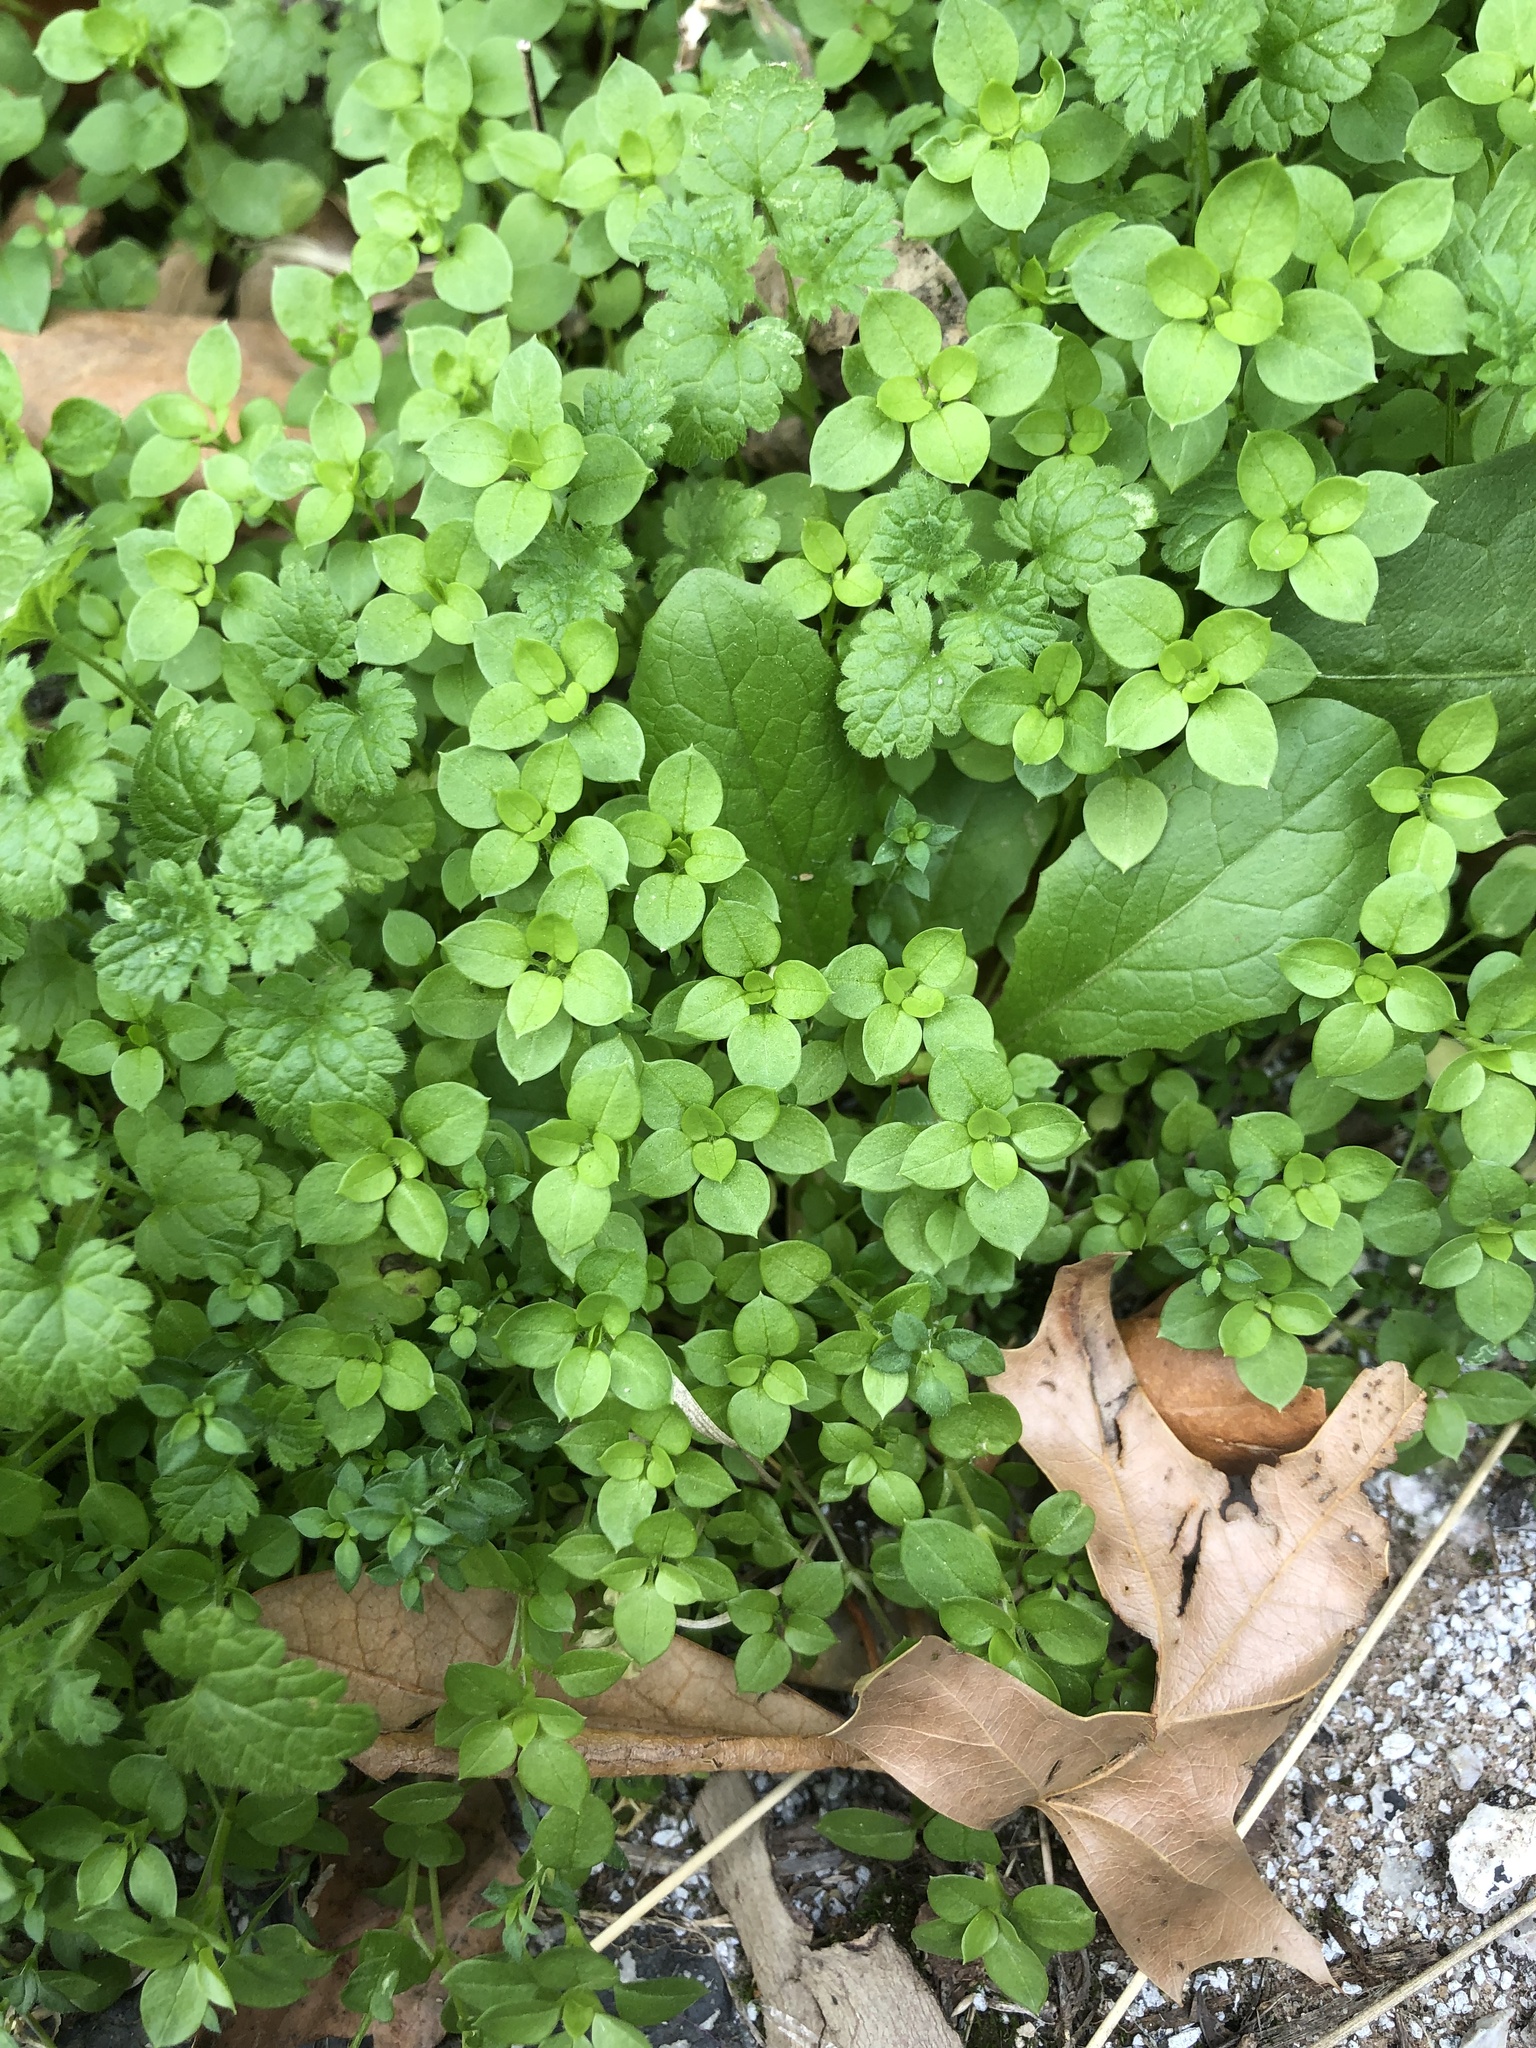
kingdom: Plantae
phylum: Tracheophyta
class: Magnoliopsida
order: Caryophyllales
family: Caryophyllaceae
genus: Stellaria
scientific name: Stellaria media
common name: Common chickweed
